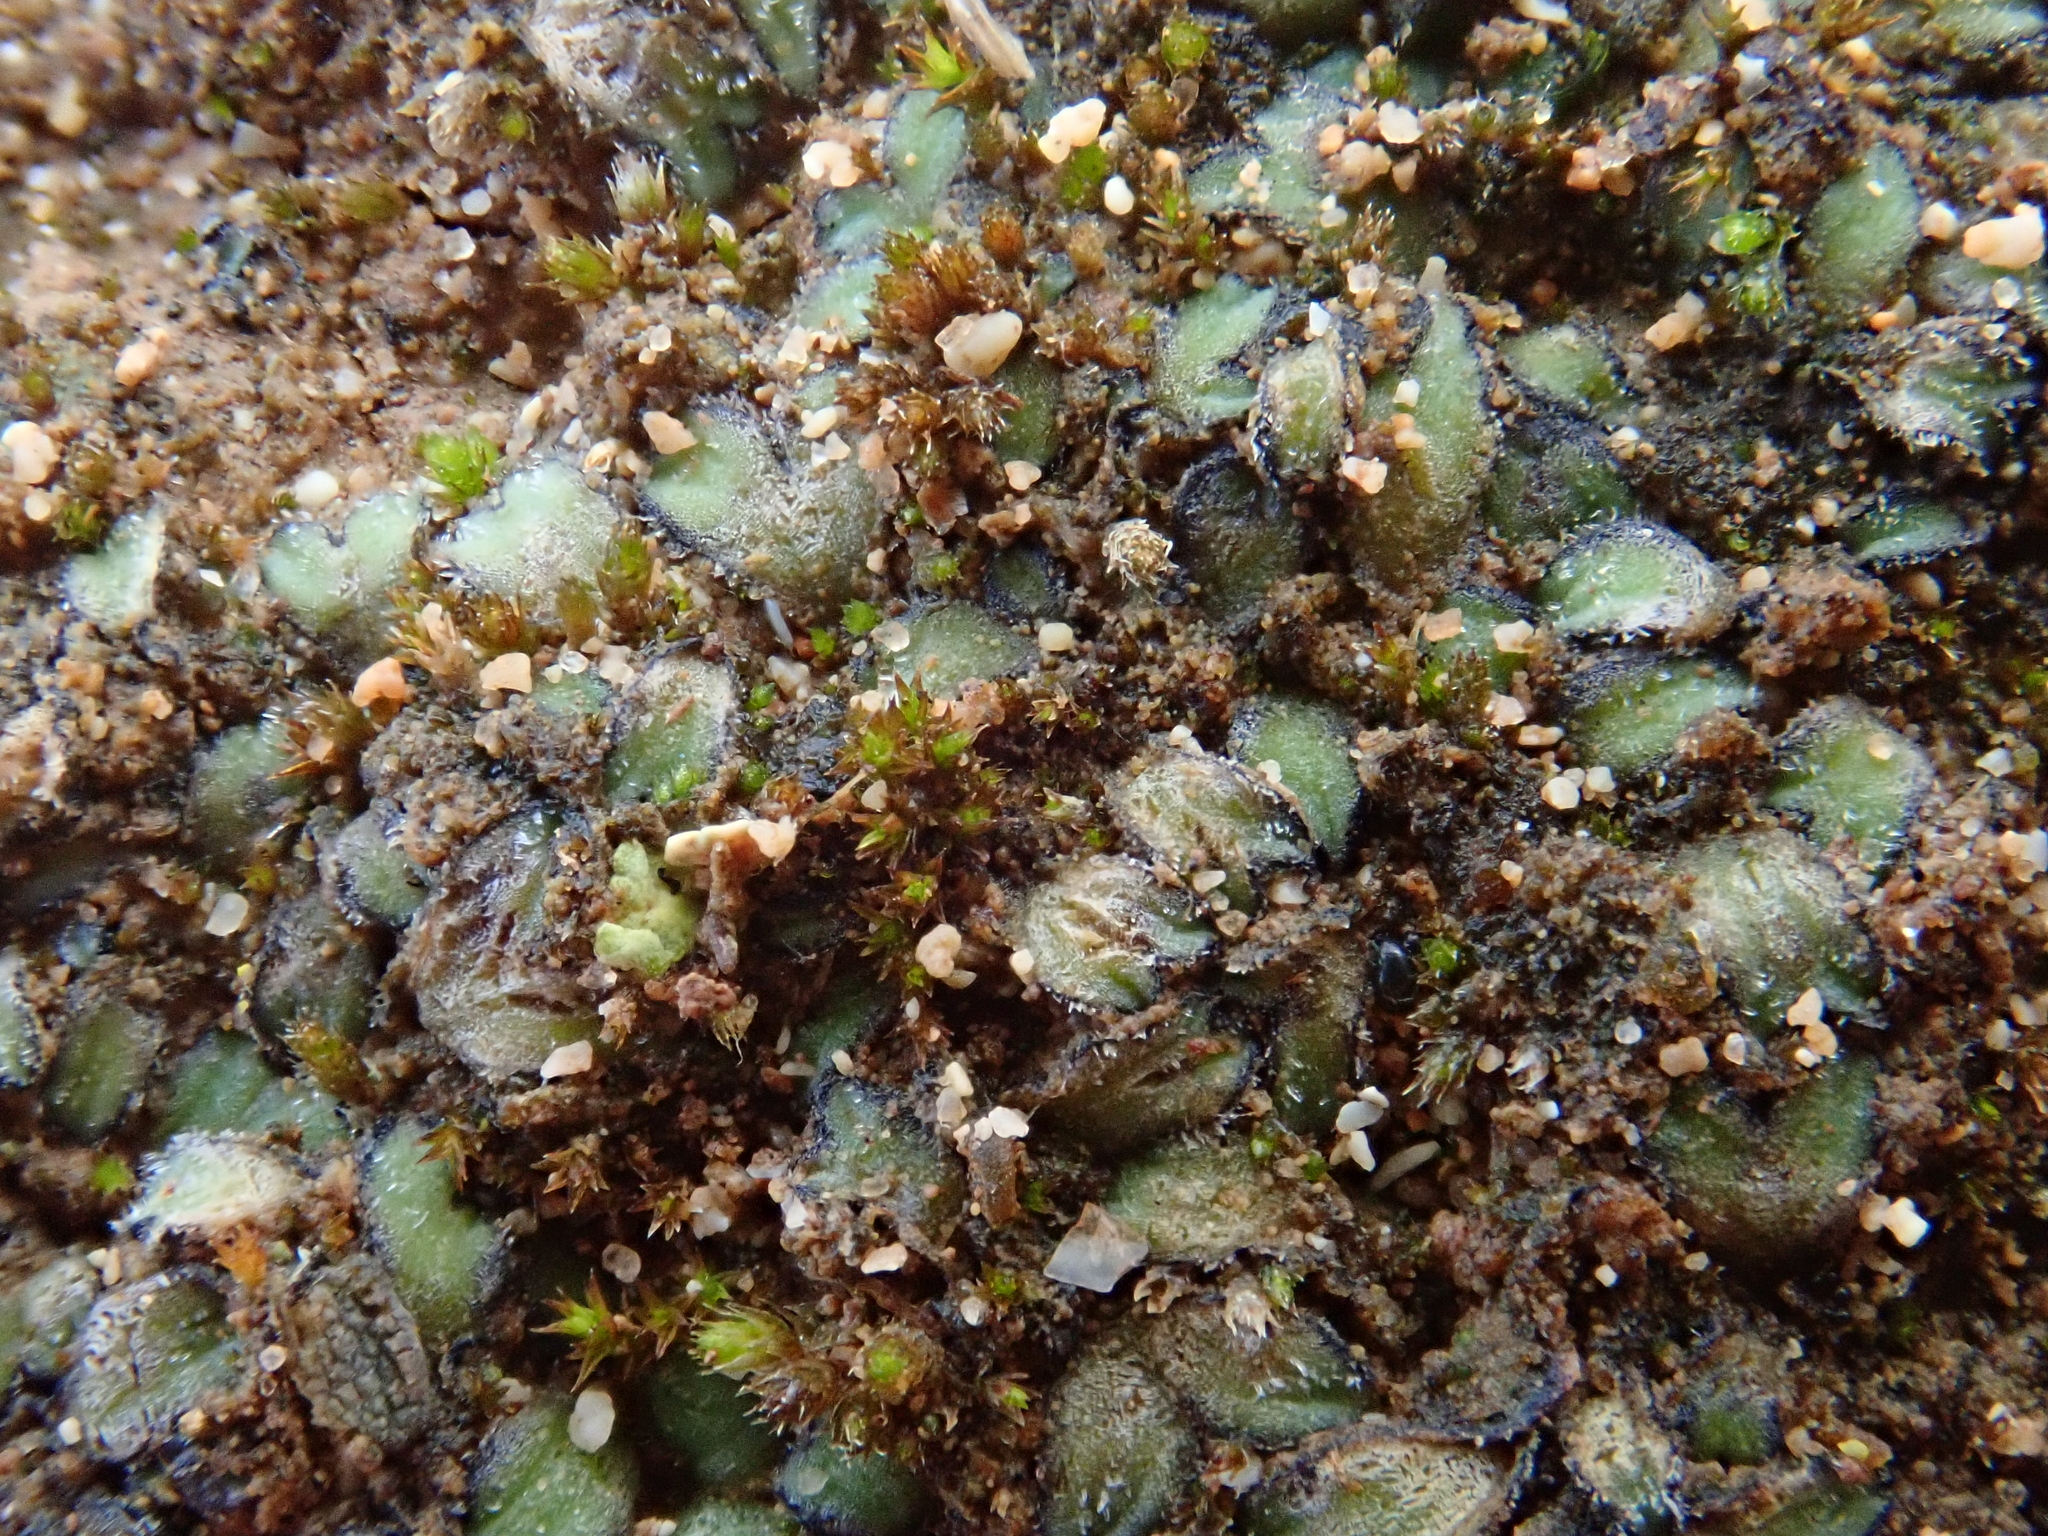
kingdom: Plantae
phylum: Marchantiophyta
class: Marchantiopsida
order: Marchantiales
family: Ricciaceae
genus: Riccia
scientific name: Riccia atromarginata
